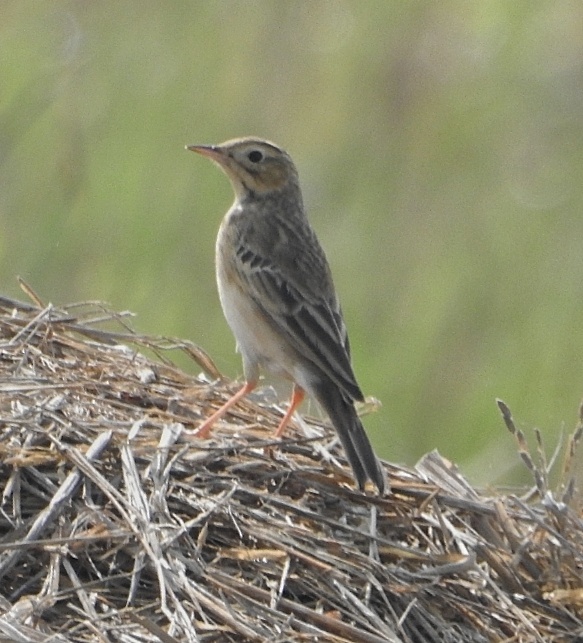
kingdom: Animalia
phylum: Chordata
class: Aves
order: Passeriformes
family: Motacillidae
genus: Anthus
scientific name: Anthus godlewskii
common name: Blyth's pipit
